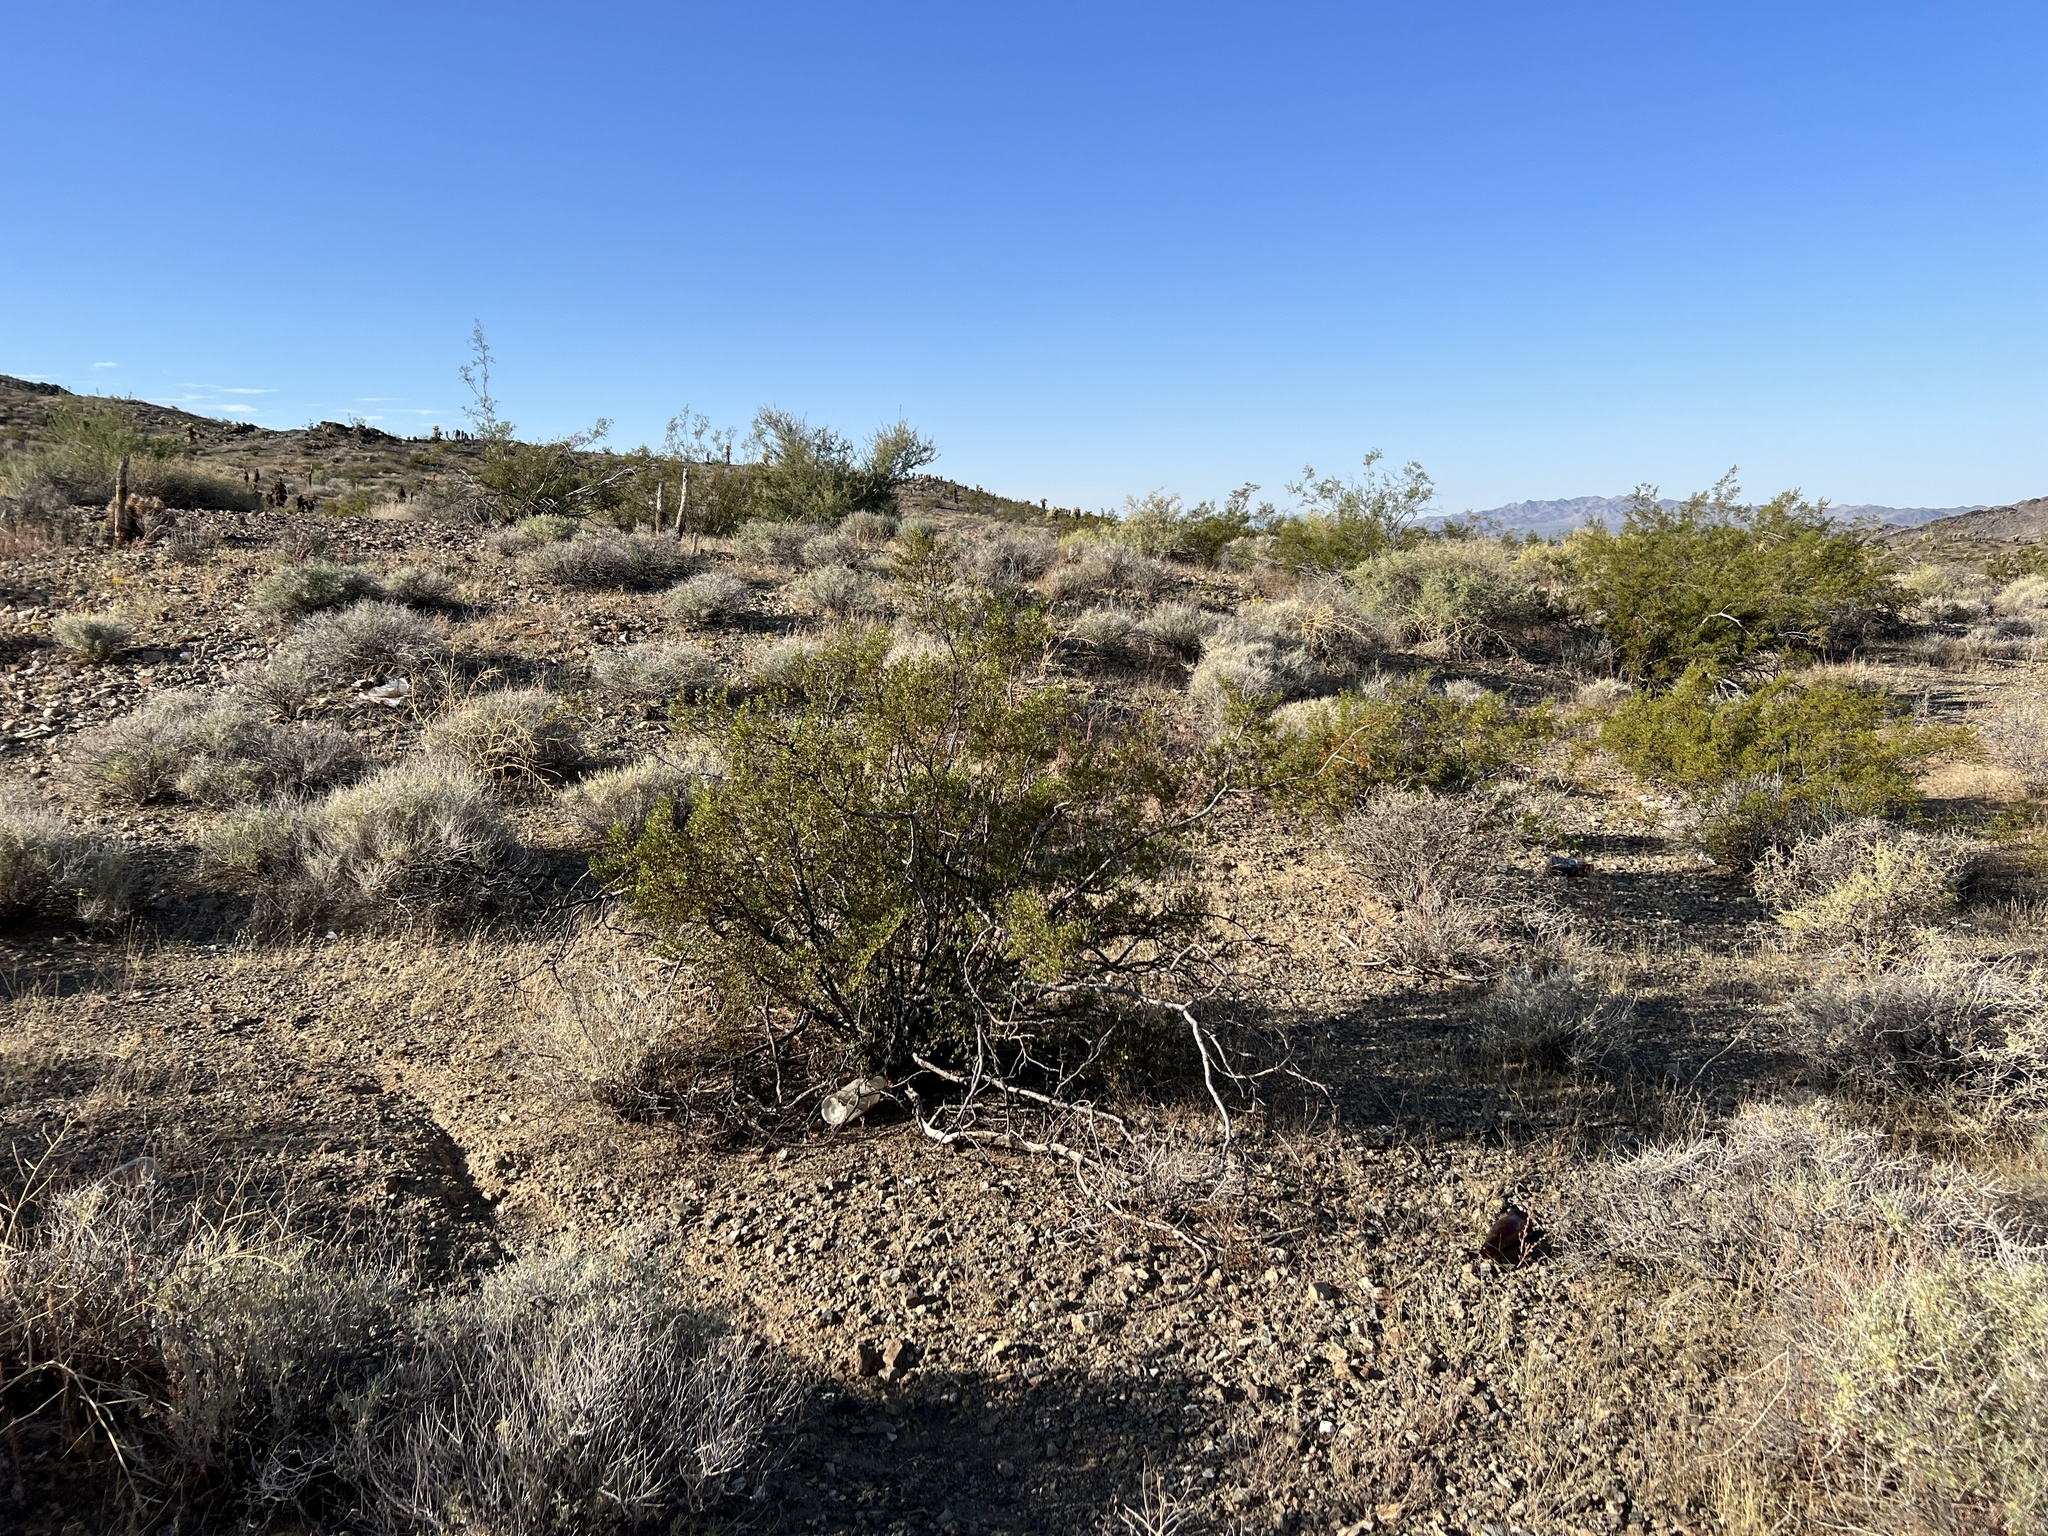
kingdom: Plantae
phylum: Tracheophyta
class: Magnoliopsida
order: Zygophyllales
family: Zygophyllaceae
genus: Larrea
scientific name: Larrea tridentata
